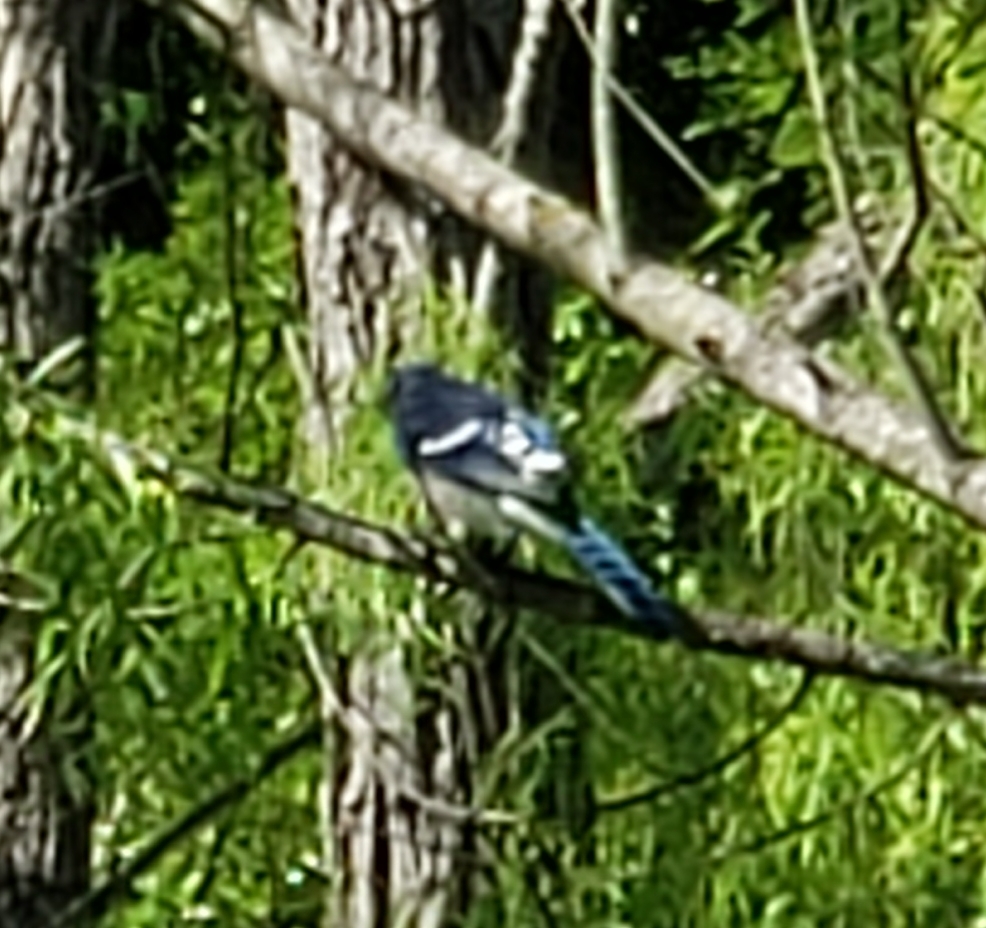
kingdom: Animalia
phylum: Chordata
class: Aves
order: Passeriformes
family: Corvidae
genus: Cyanocitta
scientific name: Cyanocitta cristata
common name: Blue jay
